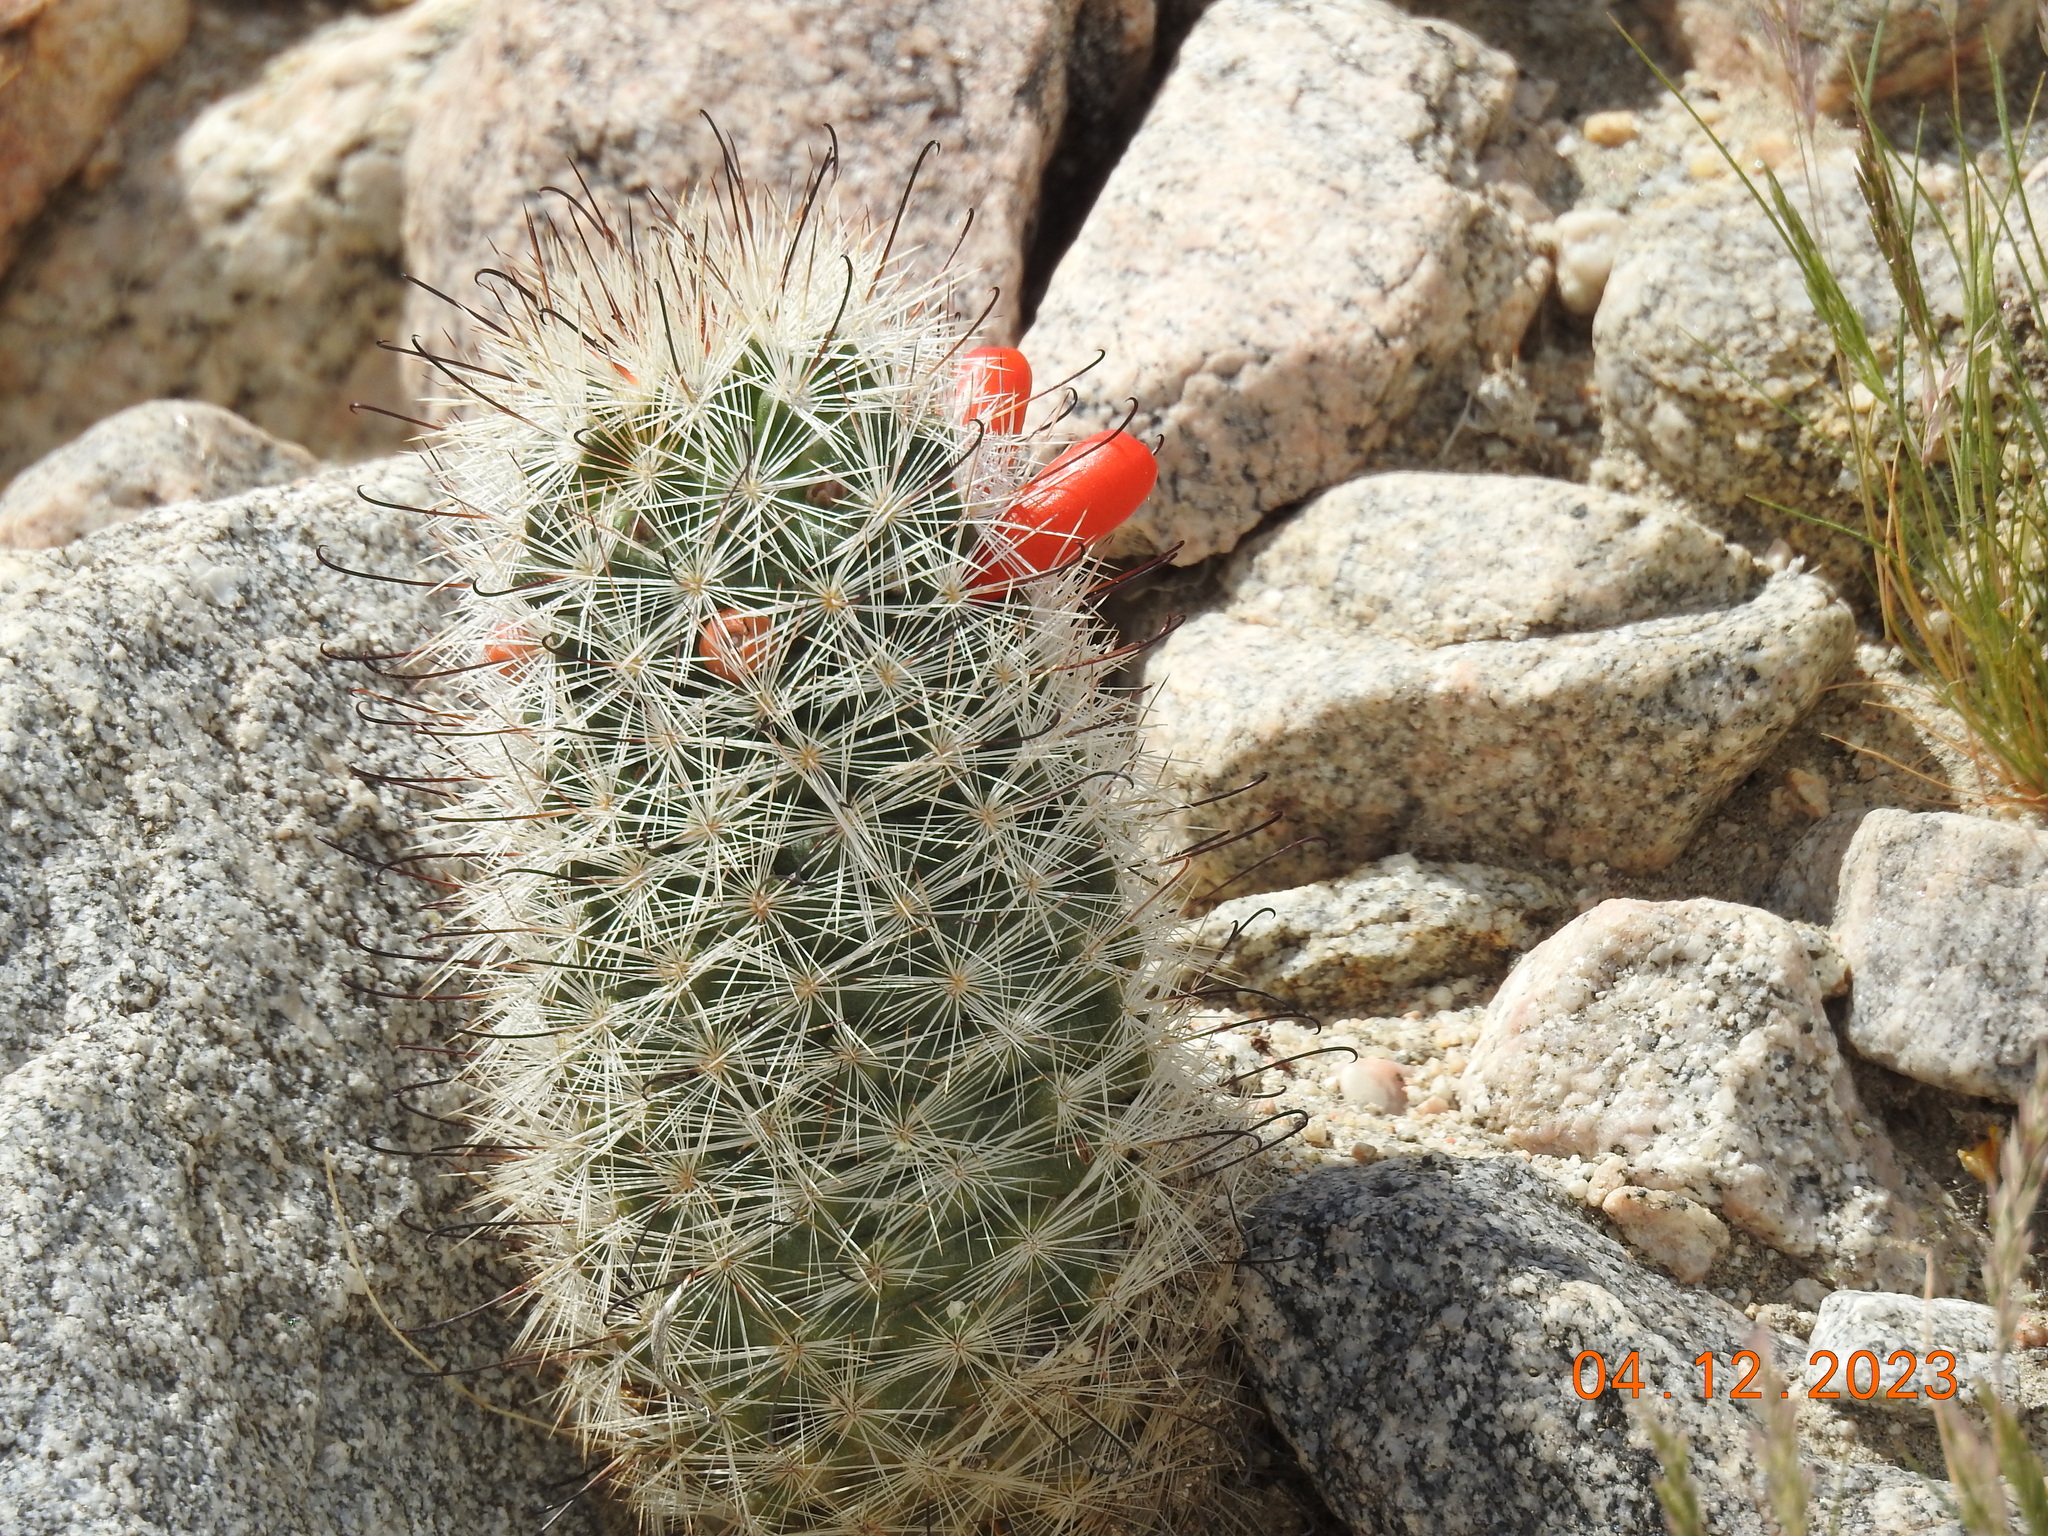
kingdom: Plantae
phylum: Tracheophyta
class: Magnoliopsida
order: Caryophyllales
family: Cactaceae
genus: Cochemiea
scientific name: Cochemiea tetrancistra
